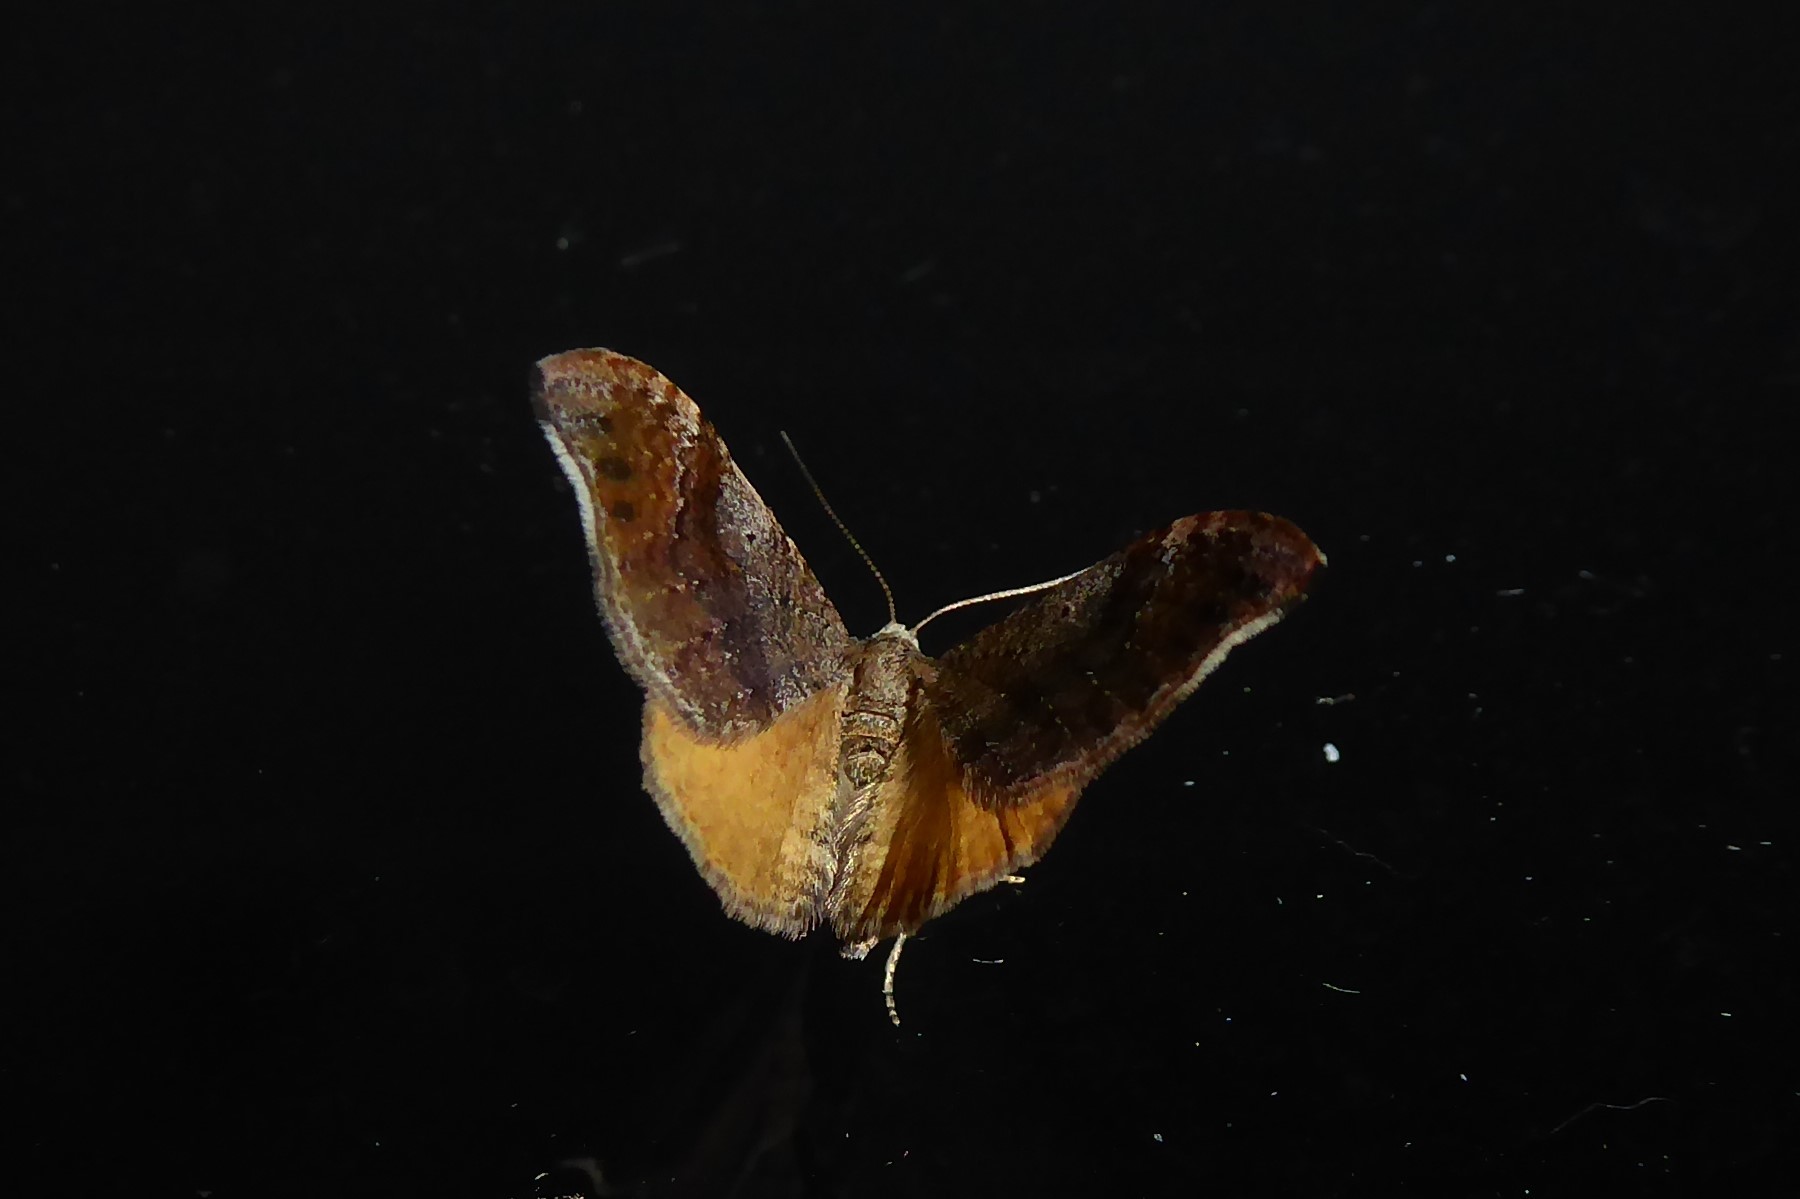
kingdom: Animalia
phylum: Arthropoda
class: Insecta
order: Lepidoptera
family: Geometridae
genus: Homodotis
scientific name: Homodotis megaspilata
